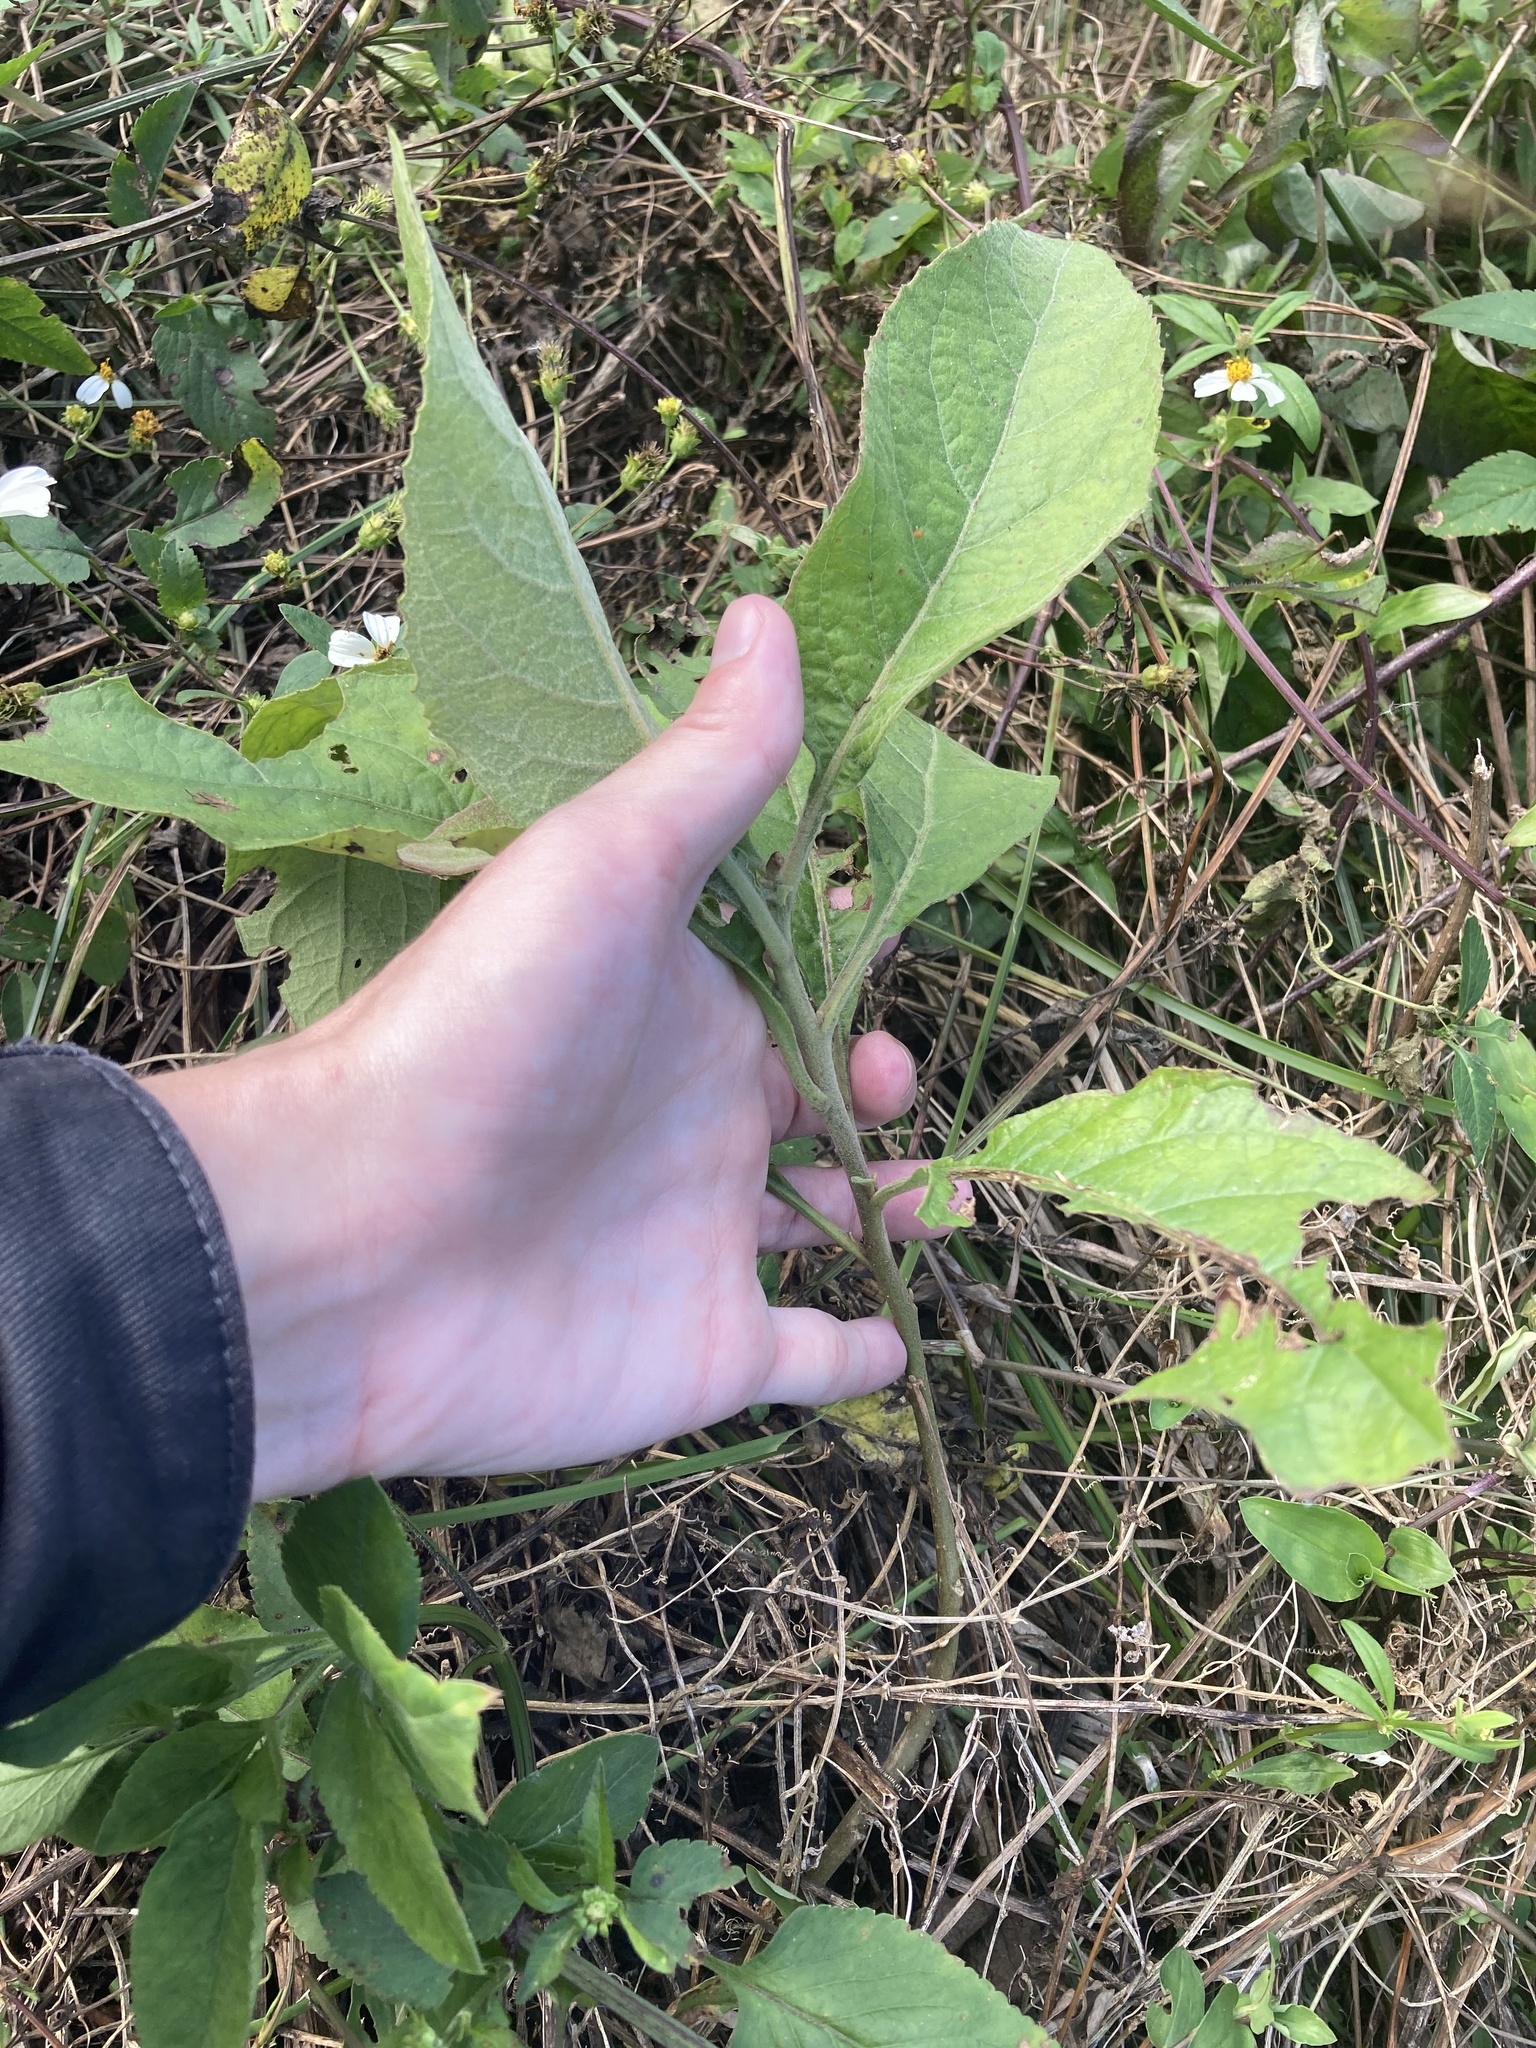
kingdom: Plantae
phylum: Tracheophyta
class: Magnoliopsida
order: Asterales
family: Asteraceae
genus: Pluchea
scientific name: Pluchea carolinensis
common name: Marsh fleabane
